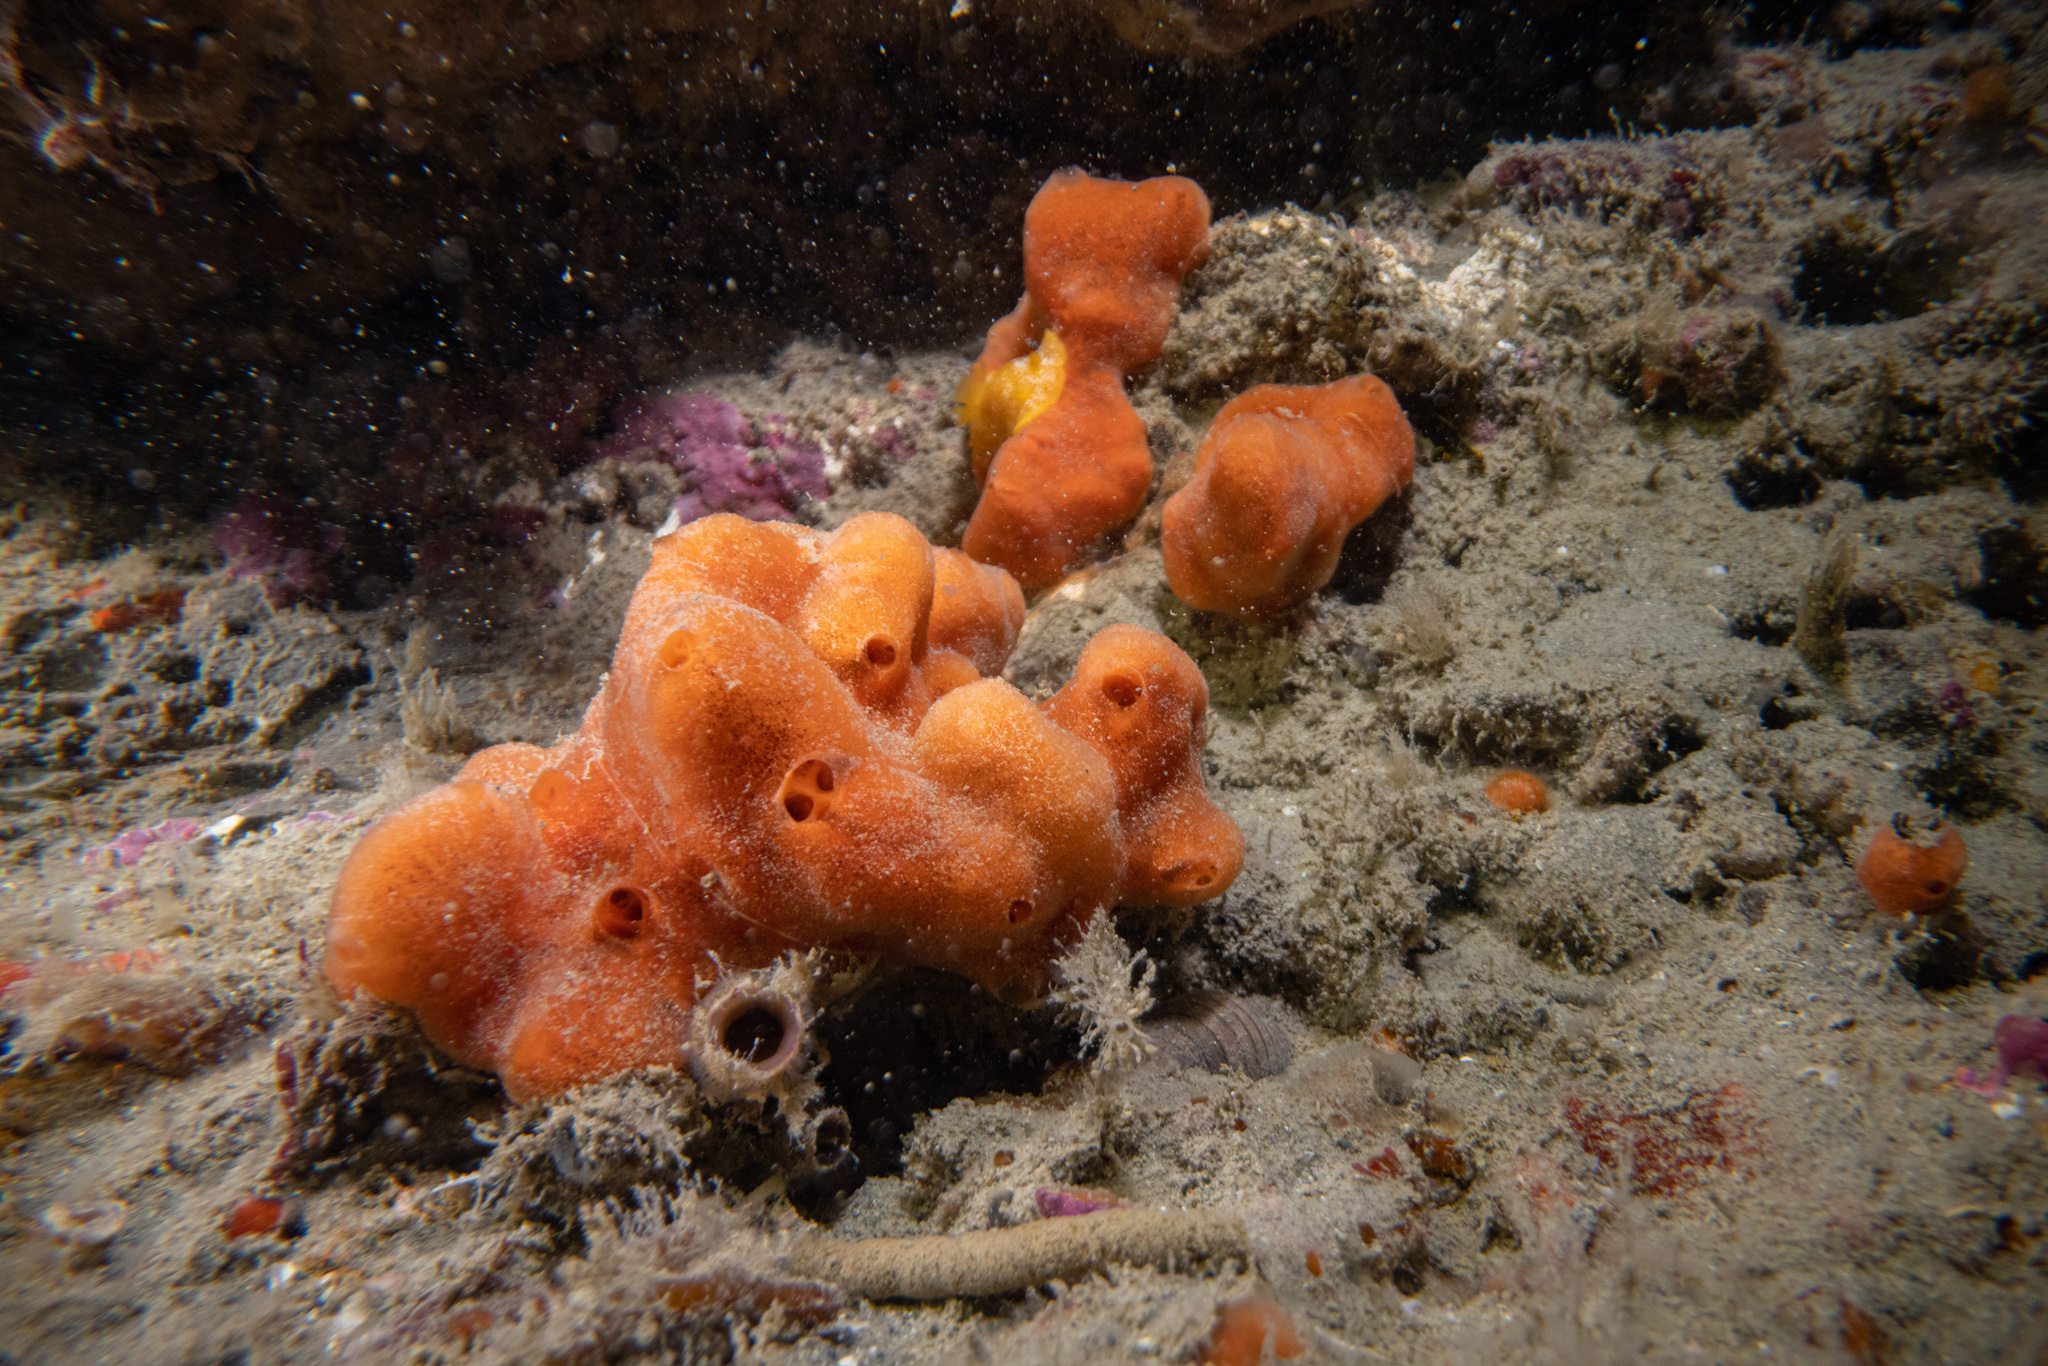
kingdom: Animalia
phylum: Porifera
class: Demospongiae
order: Poecilosclerida
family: Crellidae
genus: Crella
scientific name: Crella incrustans
